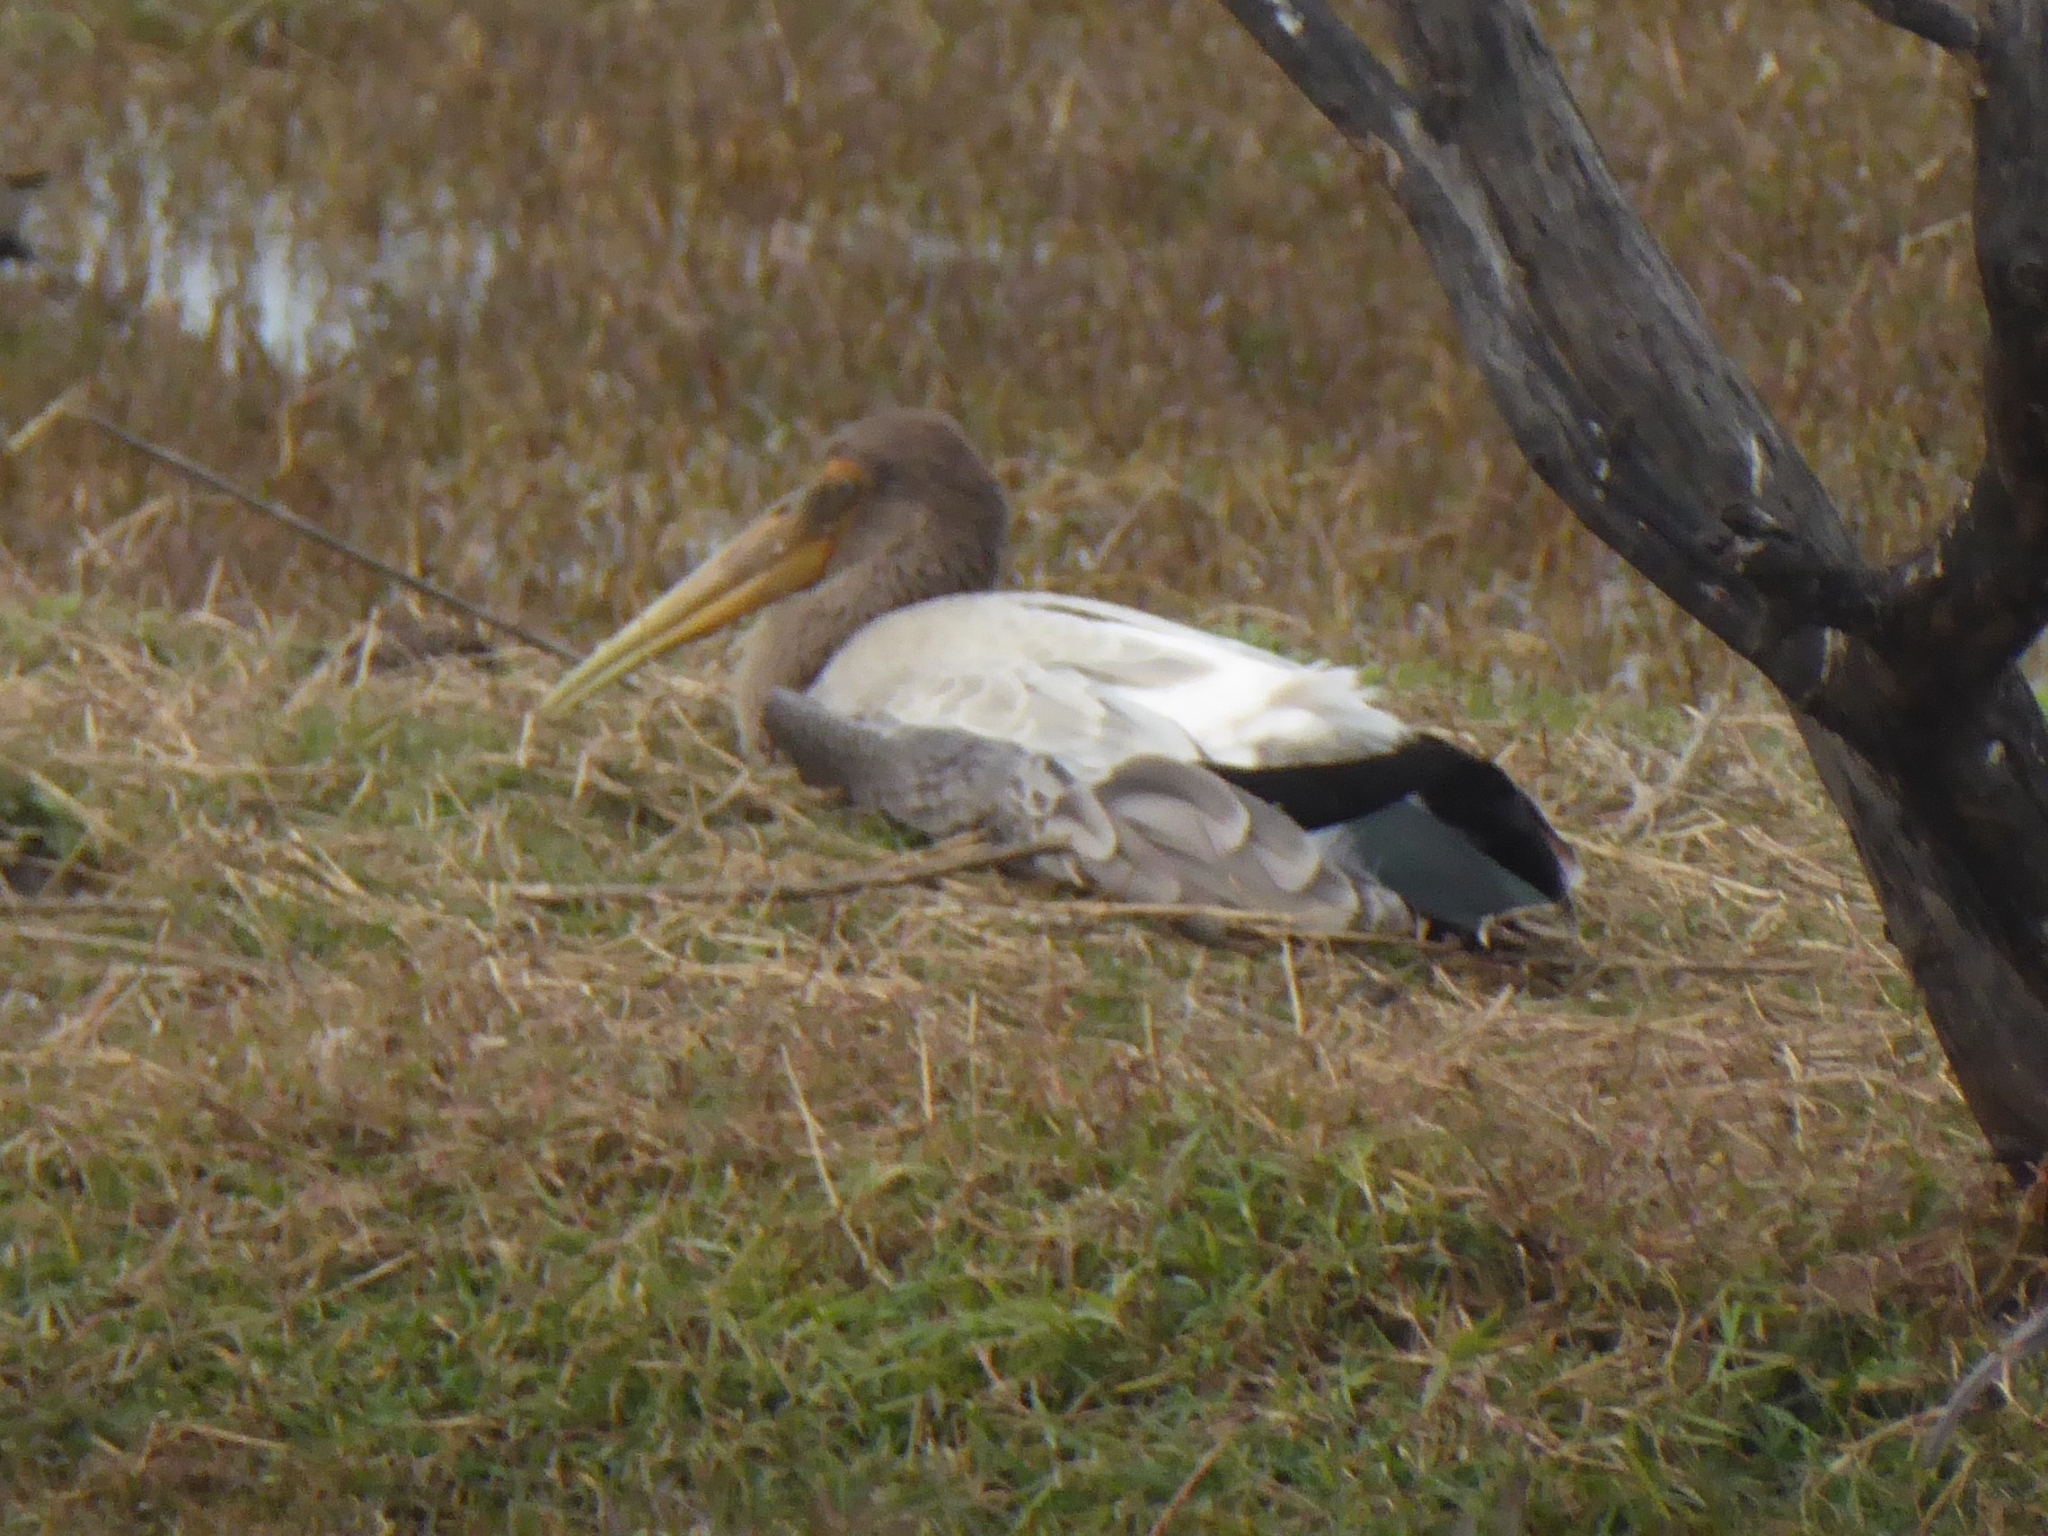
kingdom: Animalia
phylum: Chordata
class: Aves
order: Ciconiiformes
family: Ciconiidae
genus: Mycteria
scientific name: Mycteria leucocephala
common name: Painted stork
